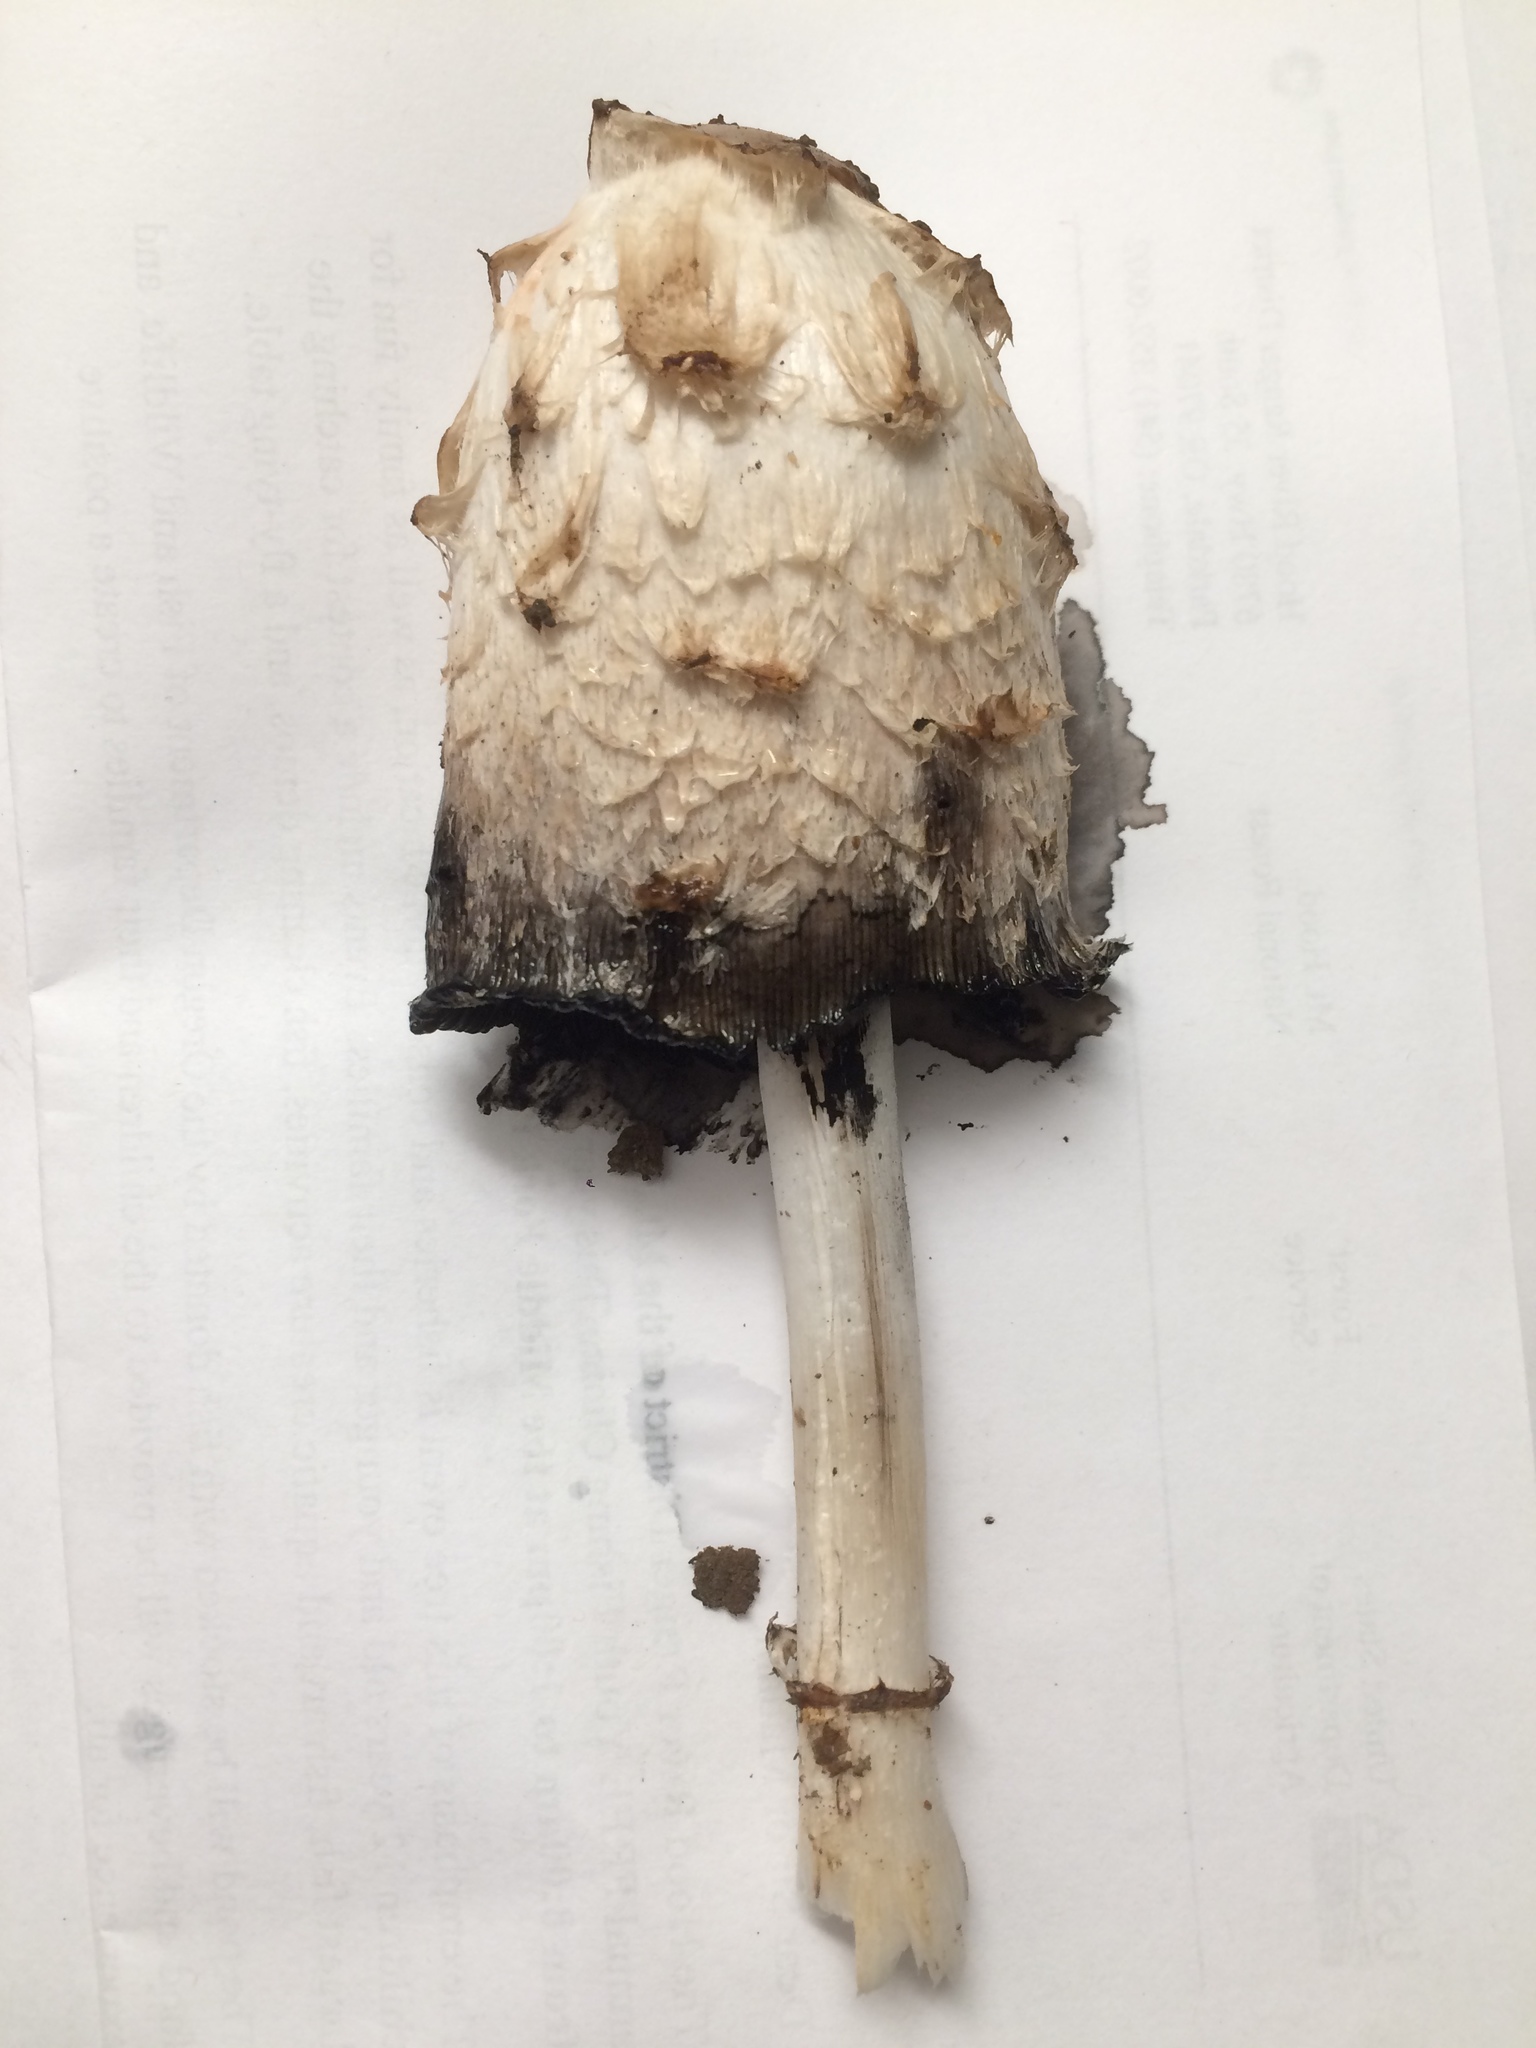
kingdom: Fungi
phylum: Basidiomycota
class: Agaricomycetes
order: Agaricales
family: Agaricaceae
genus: Coprinus
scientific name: Coprinus comatus
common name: Lawyer's wig
